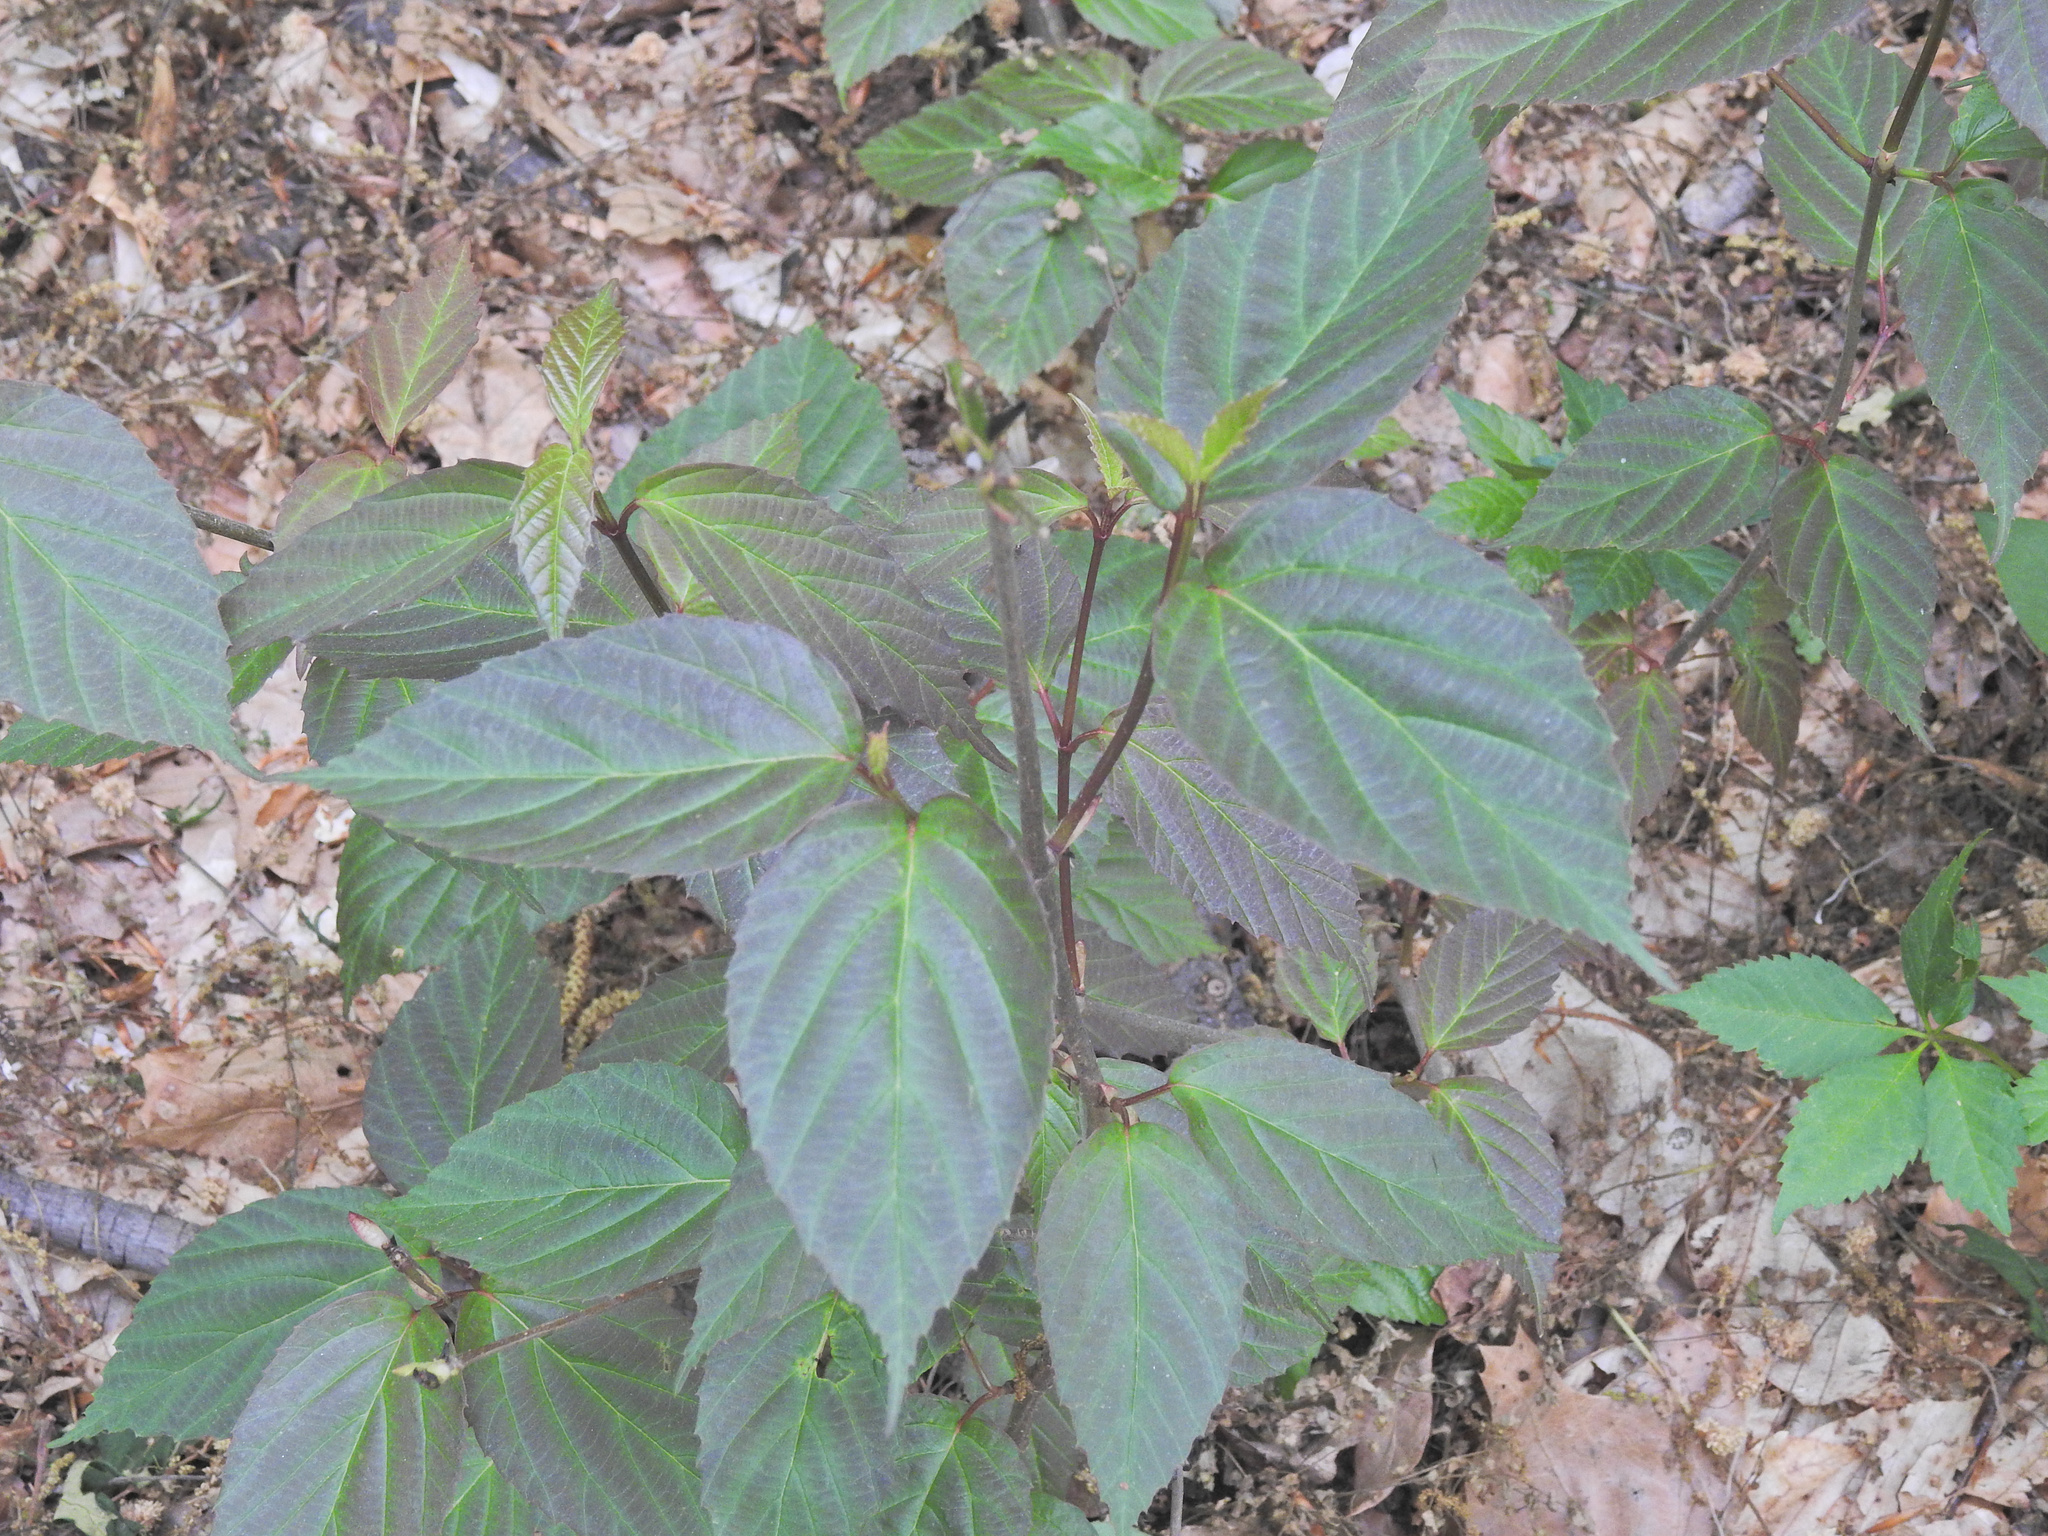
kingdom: Plantae
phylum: Tracheophyta
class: Magnoliopsida
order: Dipsacales
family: Viburnaceae
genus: Viburnum
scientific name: Viburnum setigerum
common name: Tea viburnum
